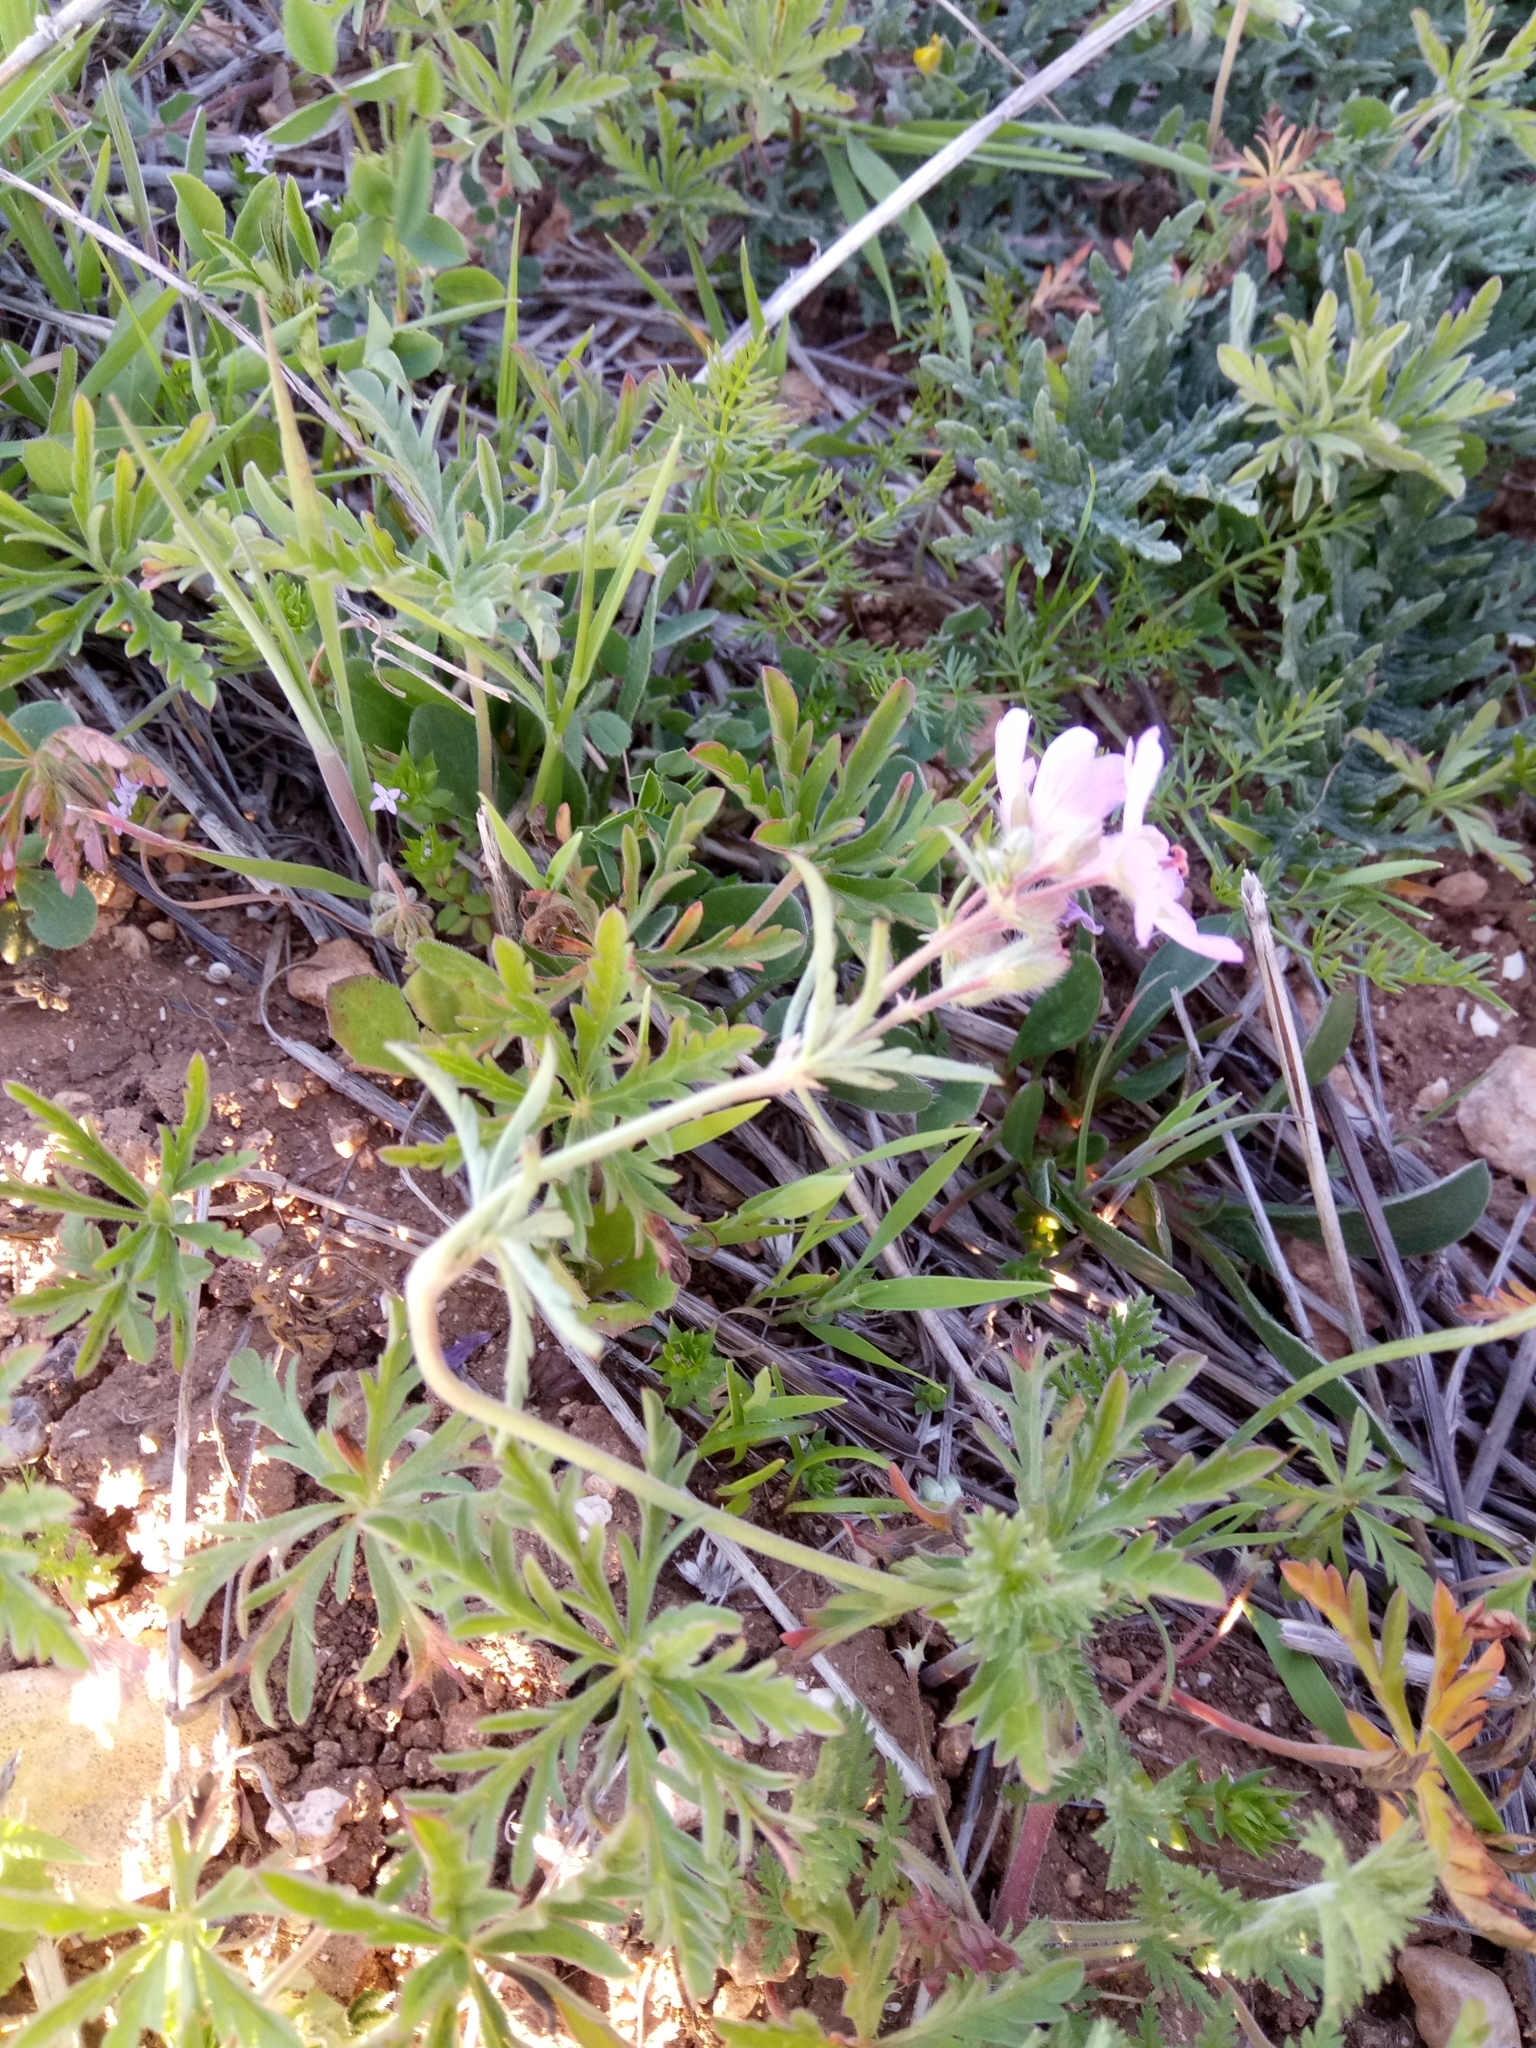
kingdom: Plantae
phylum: Tracheophyta
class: Magnoliopsida
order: Geraniales
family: Geraniaceae
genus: Geranium
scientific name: Geranium malviflorum
